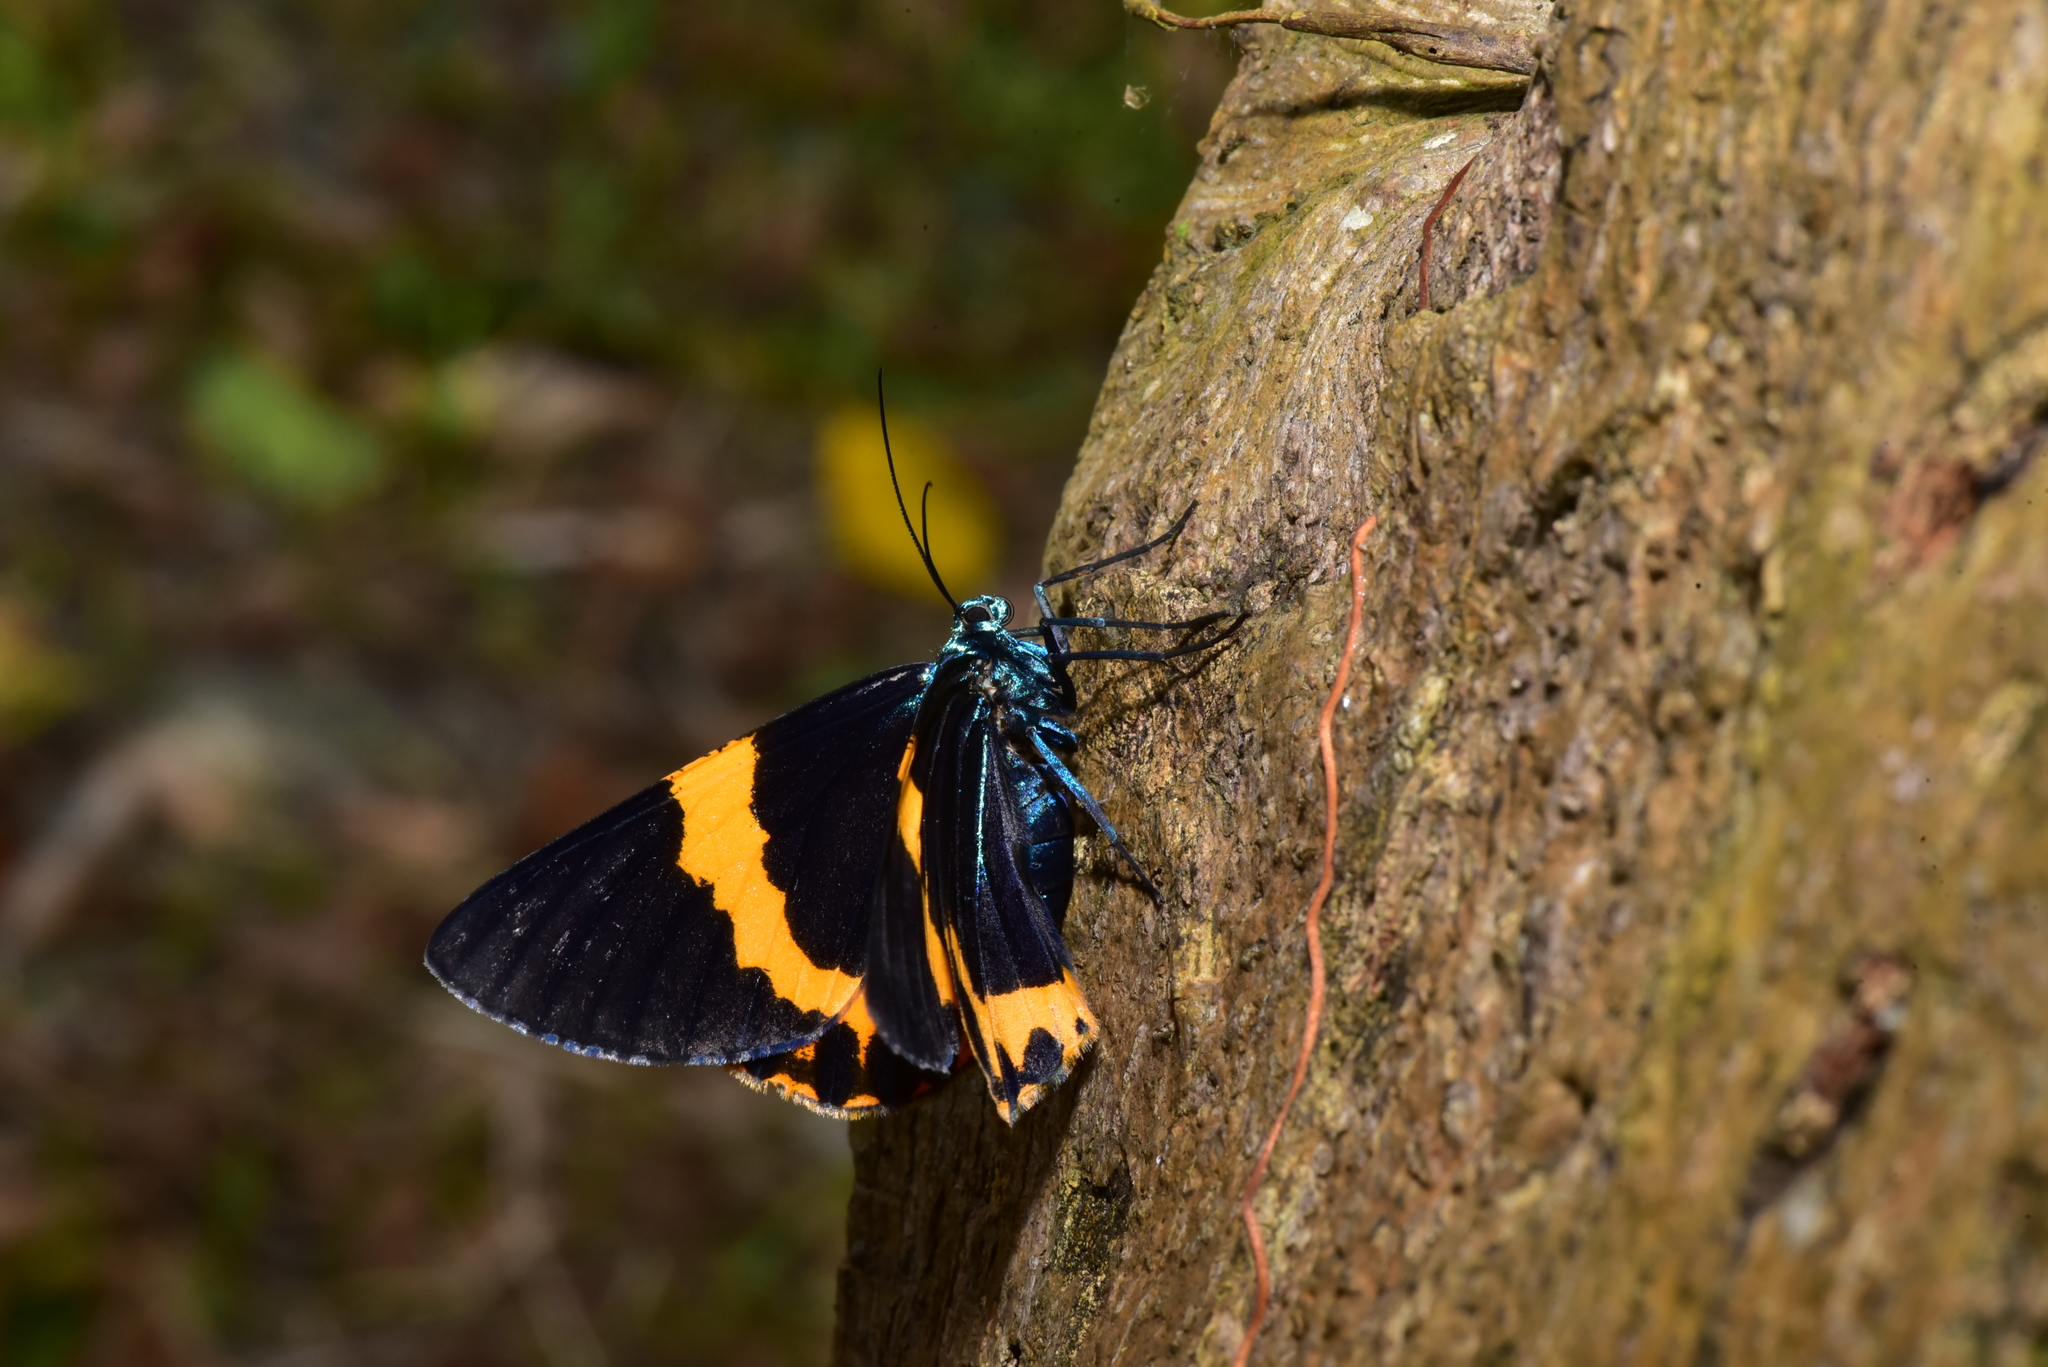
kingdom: Animalia
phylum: Arthropoda
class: Insecta
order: Lepidoptera
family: Geometridae
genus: Milionia
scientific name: Milionia basalis
